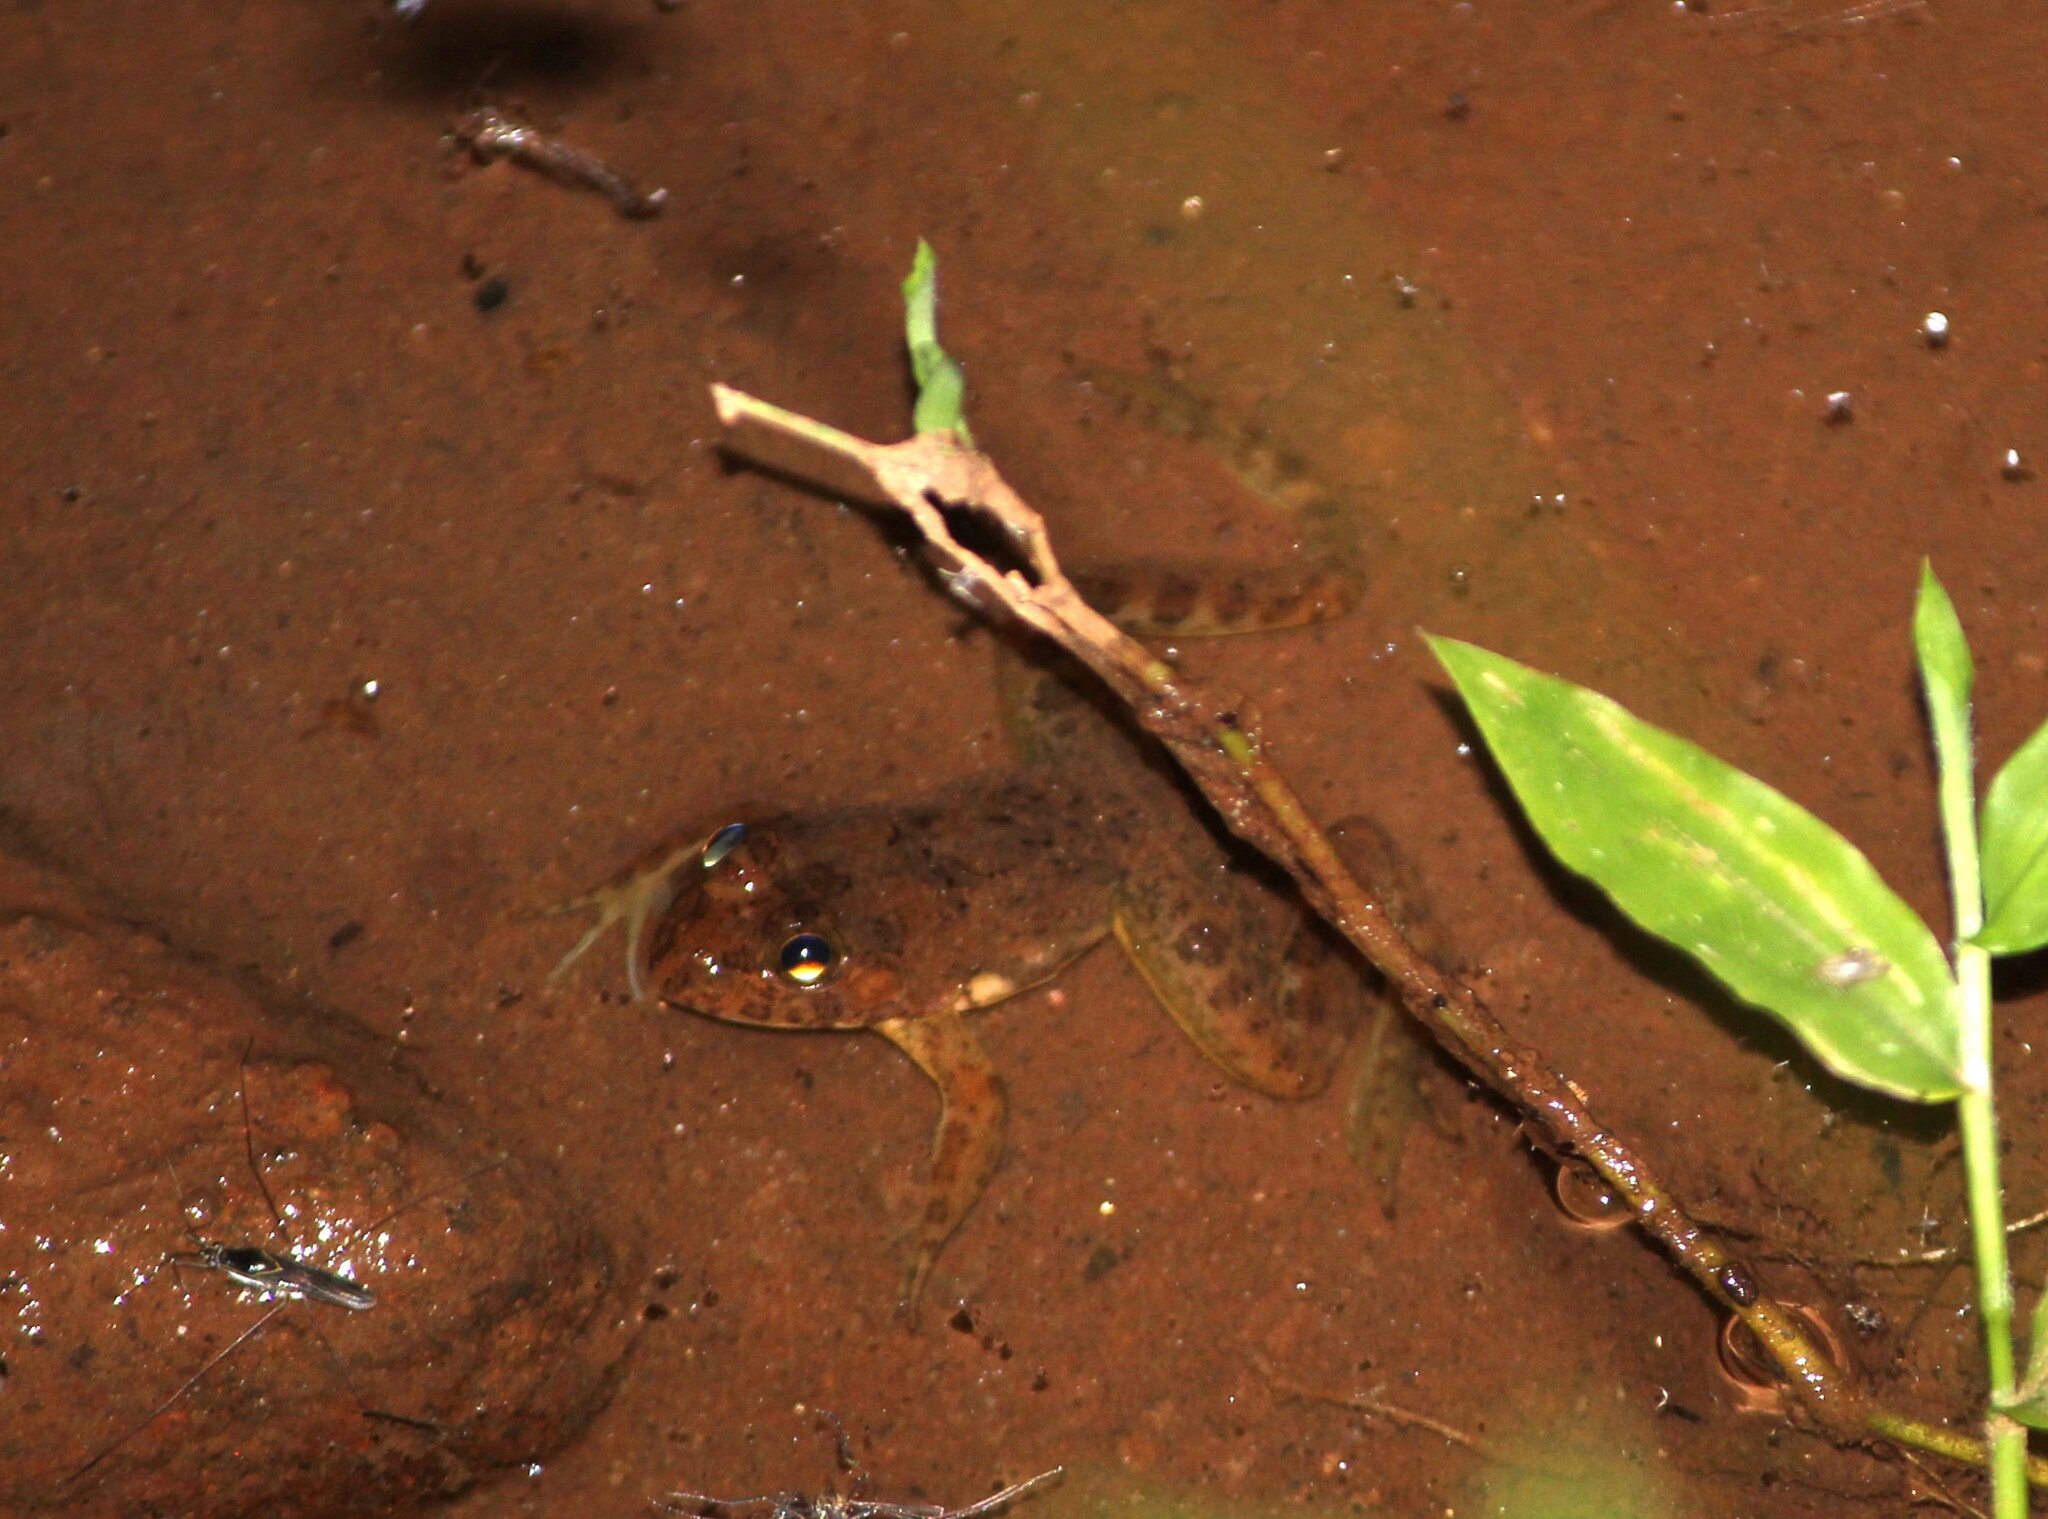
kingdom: Animalia
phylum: Chordata
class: Amphibia
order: Anura
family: Dicroglossidae
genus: Euphlyctis
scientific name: Euphlyctis cyanophlyctis
